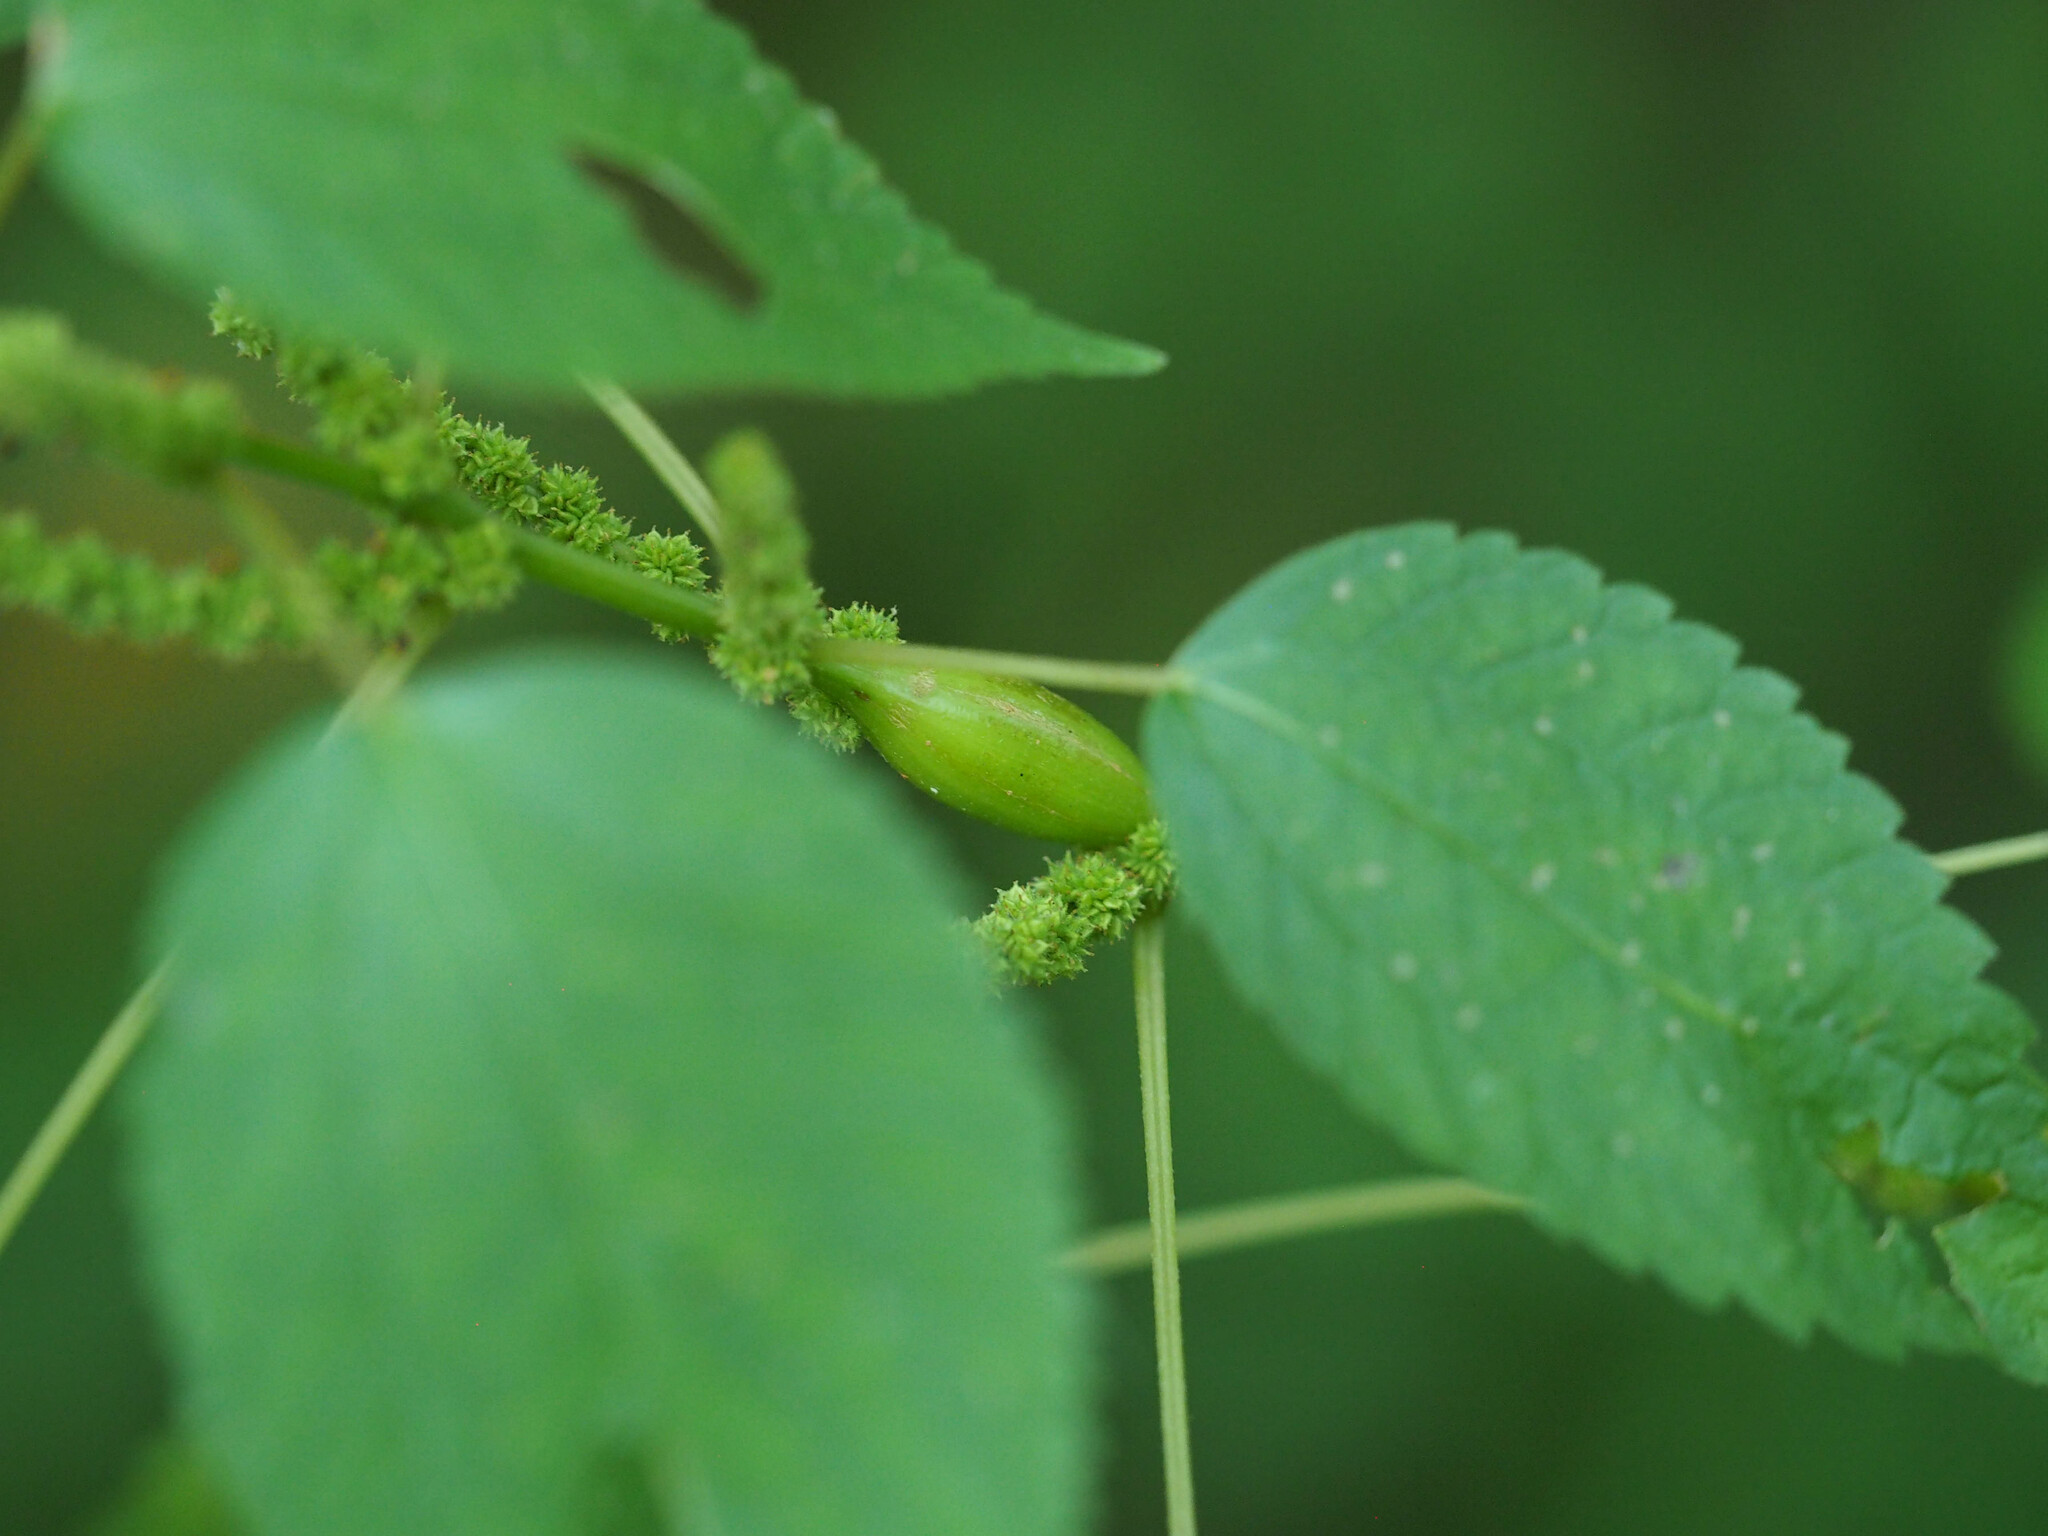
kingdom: Animalia
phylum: Arthropoda
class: Insecta
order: Diptera
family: Cecidomyiidae
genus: Neolasioptera
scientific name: Neolasioptera boehmeriae
